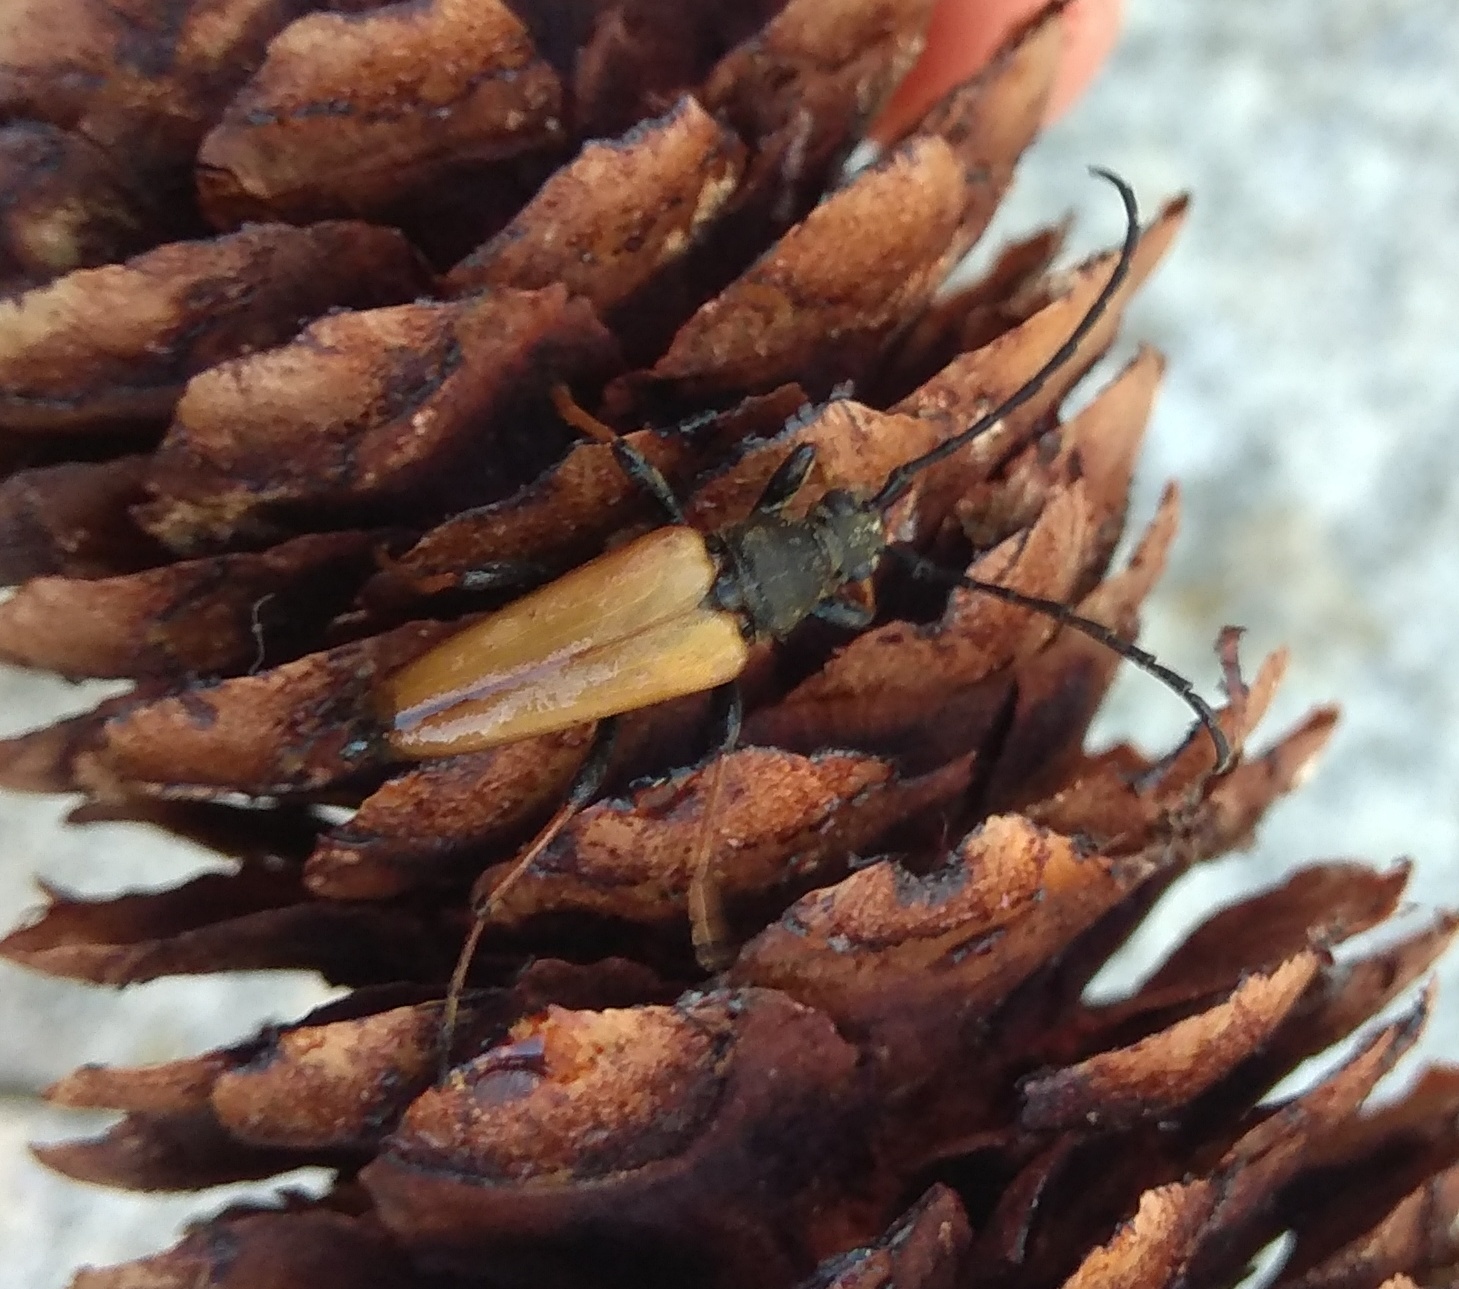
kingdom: Animalia
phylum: Arthropoda
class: Insecta
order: Coleoptera
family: Cerambycidae
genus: Stictoleptura
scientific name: Stictoleptura rubra
